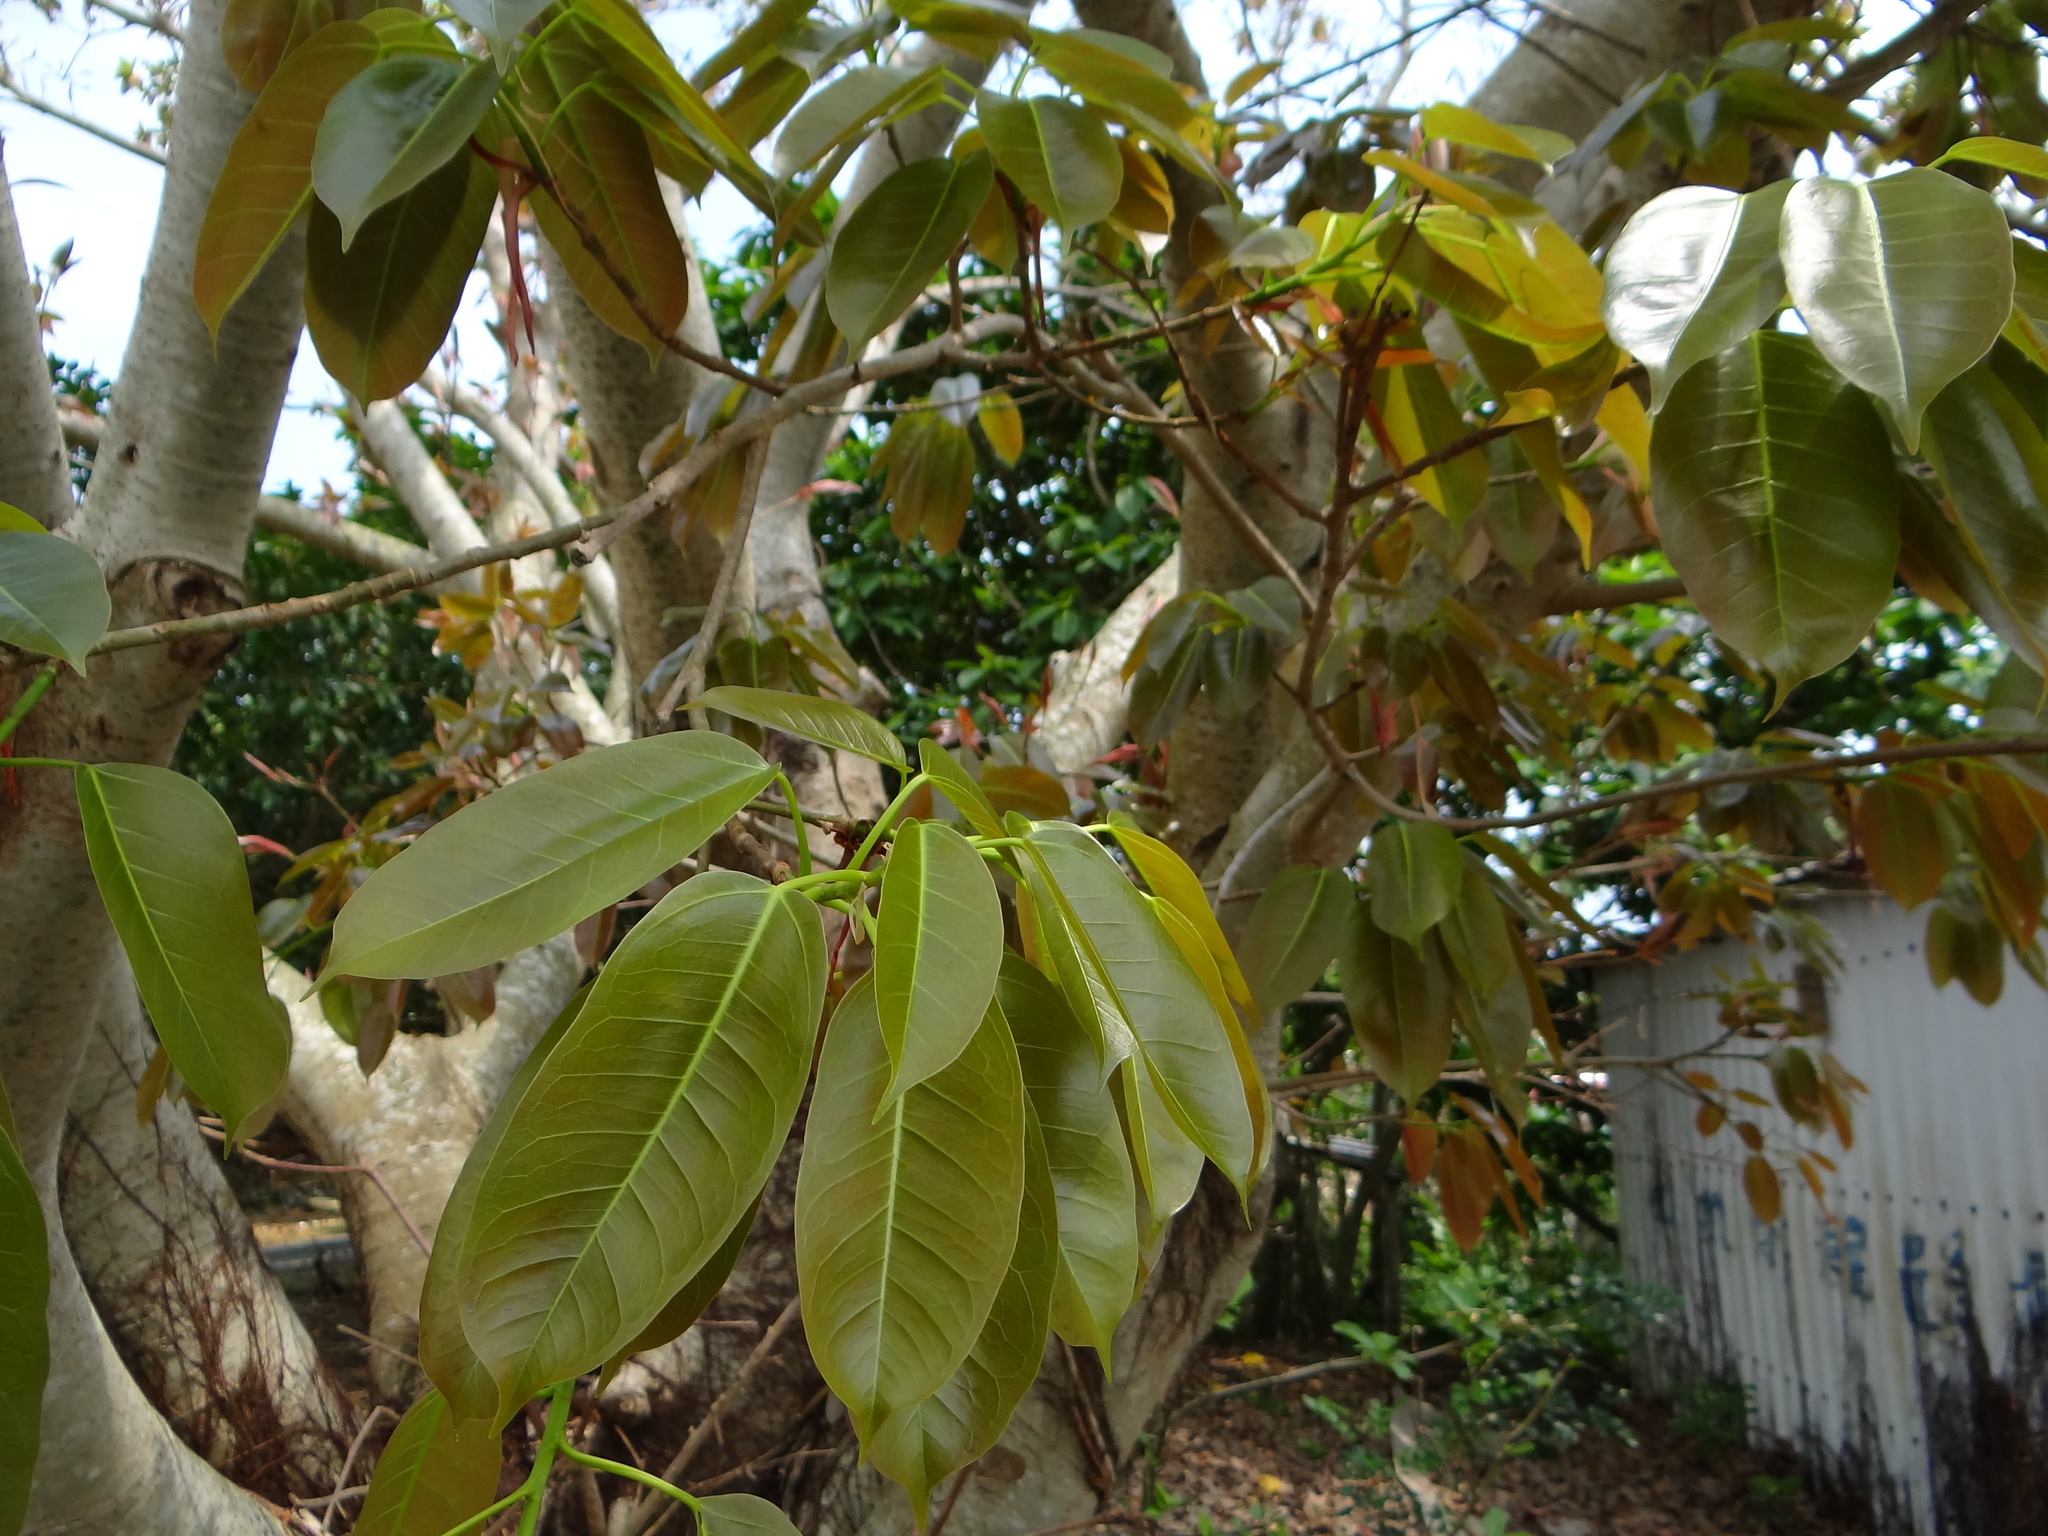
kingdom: Plantae
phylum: Tracheophyta
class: Magnoliopsida
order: Rosales
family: Moraceae
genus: Ficus
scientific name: Ficus caulocarpa
